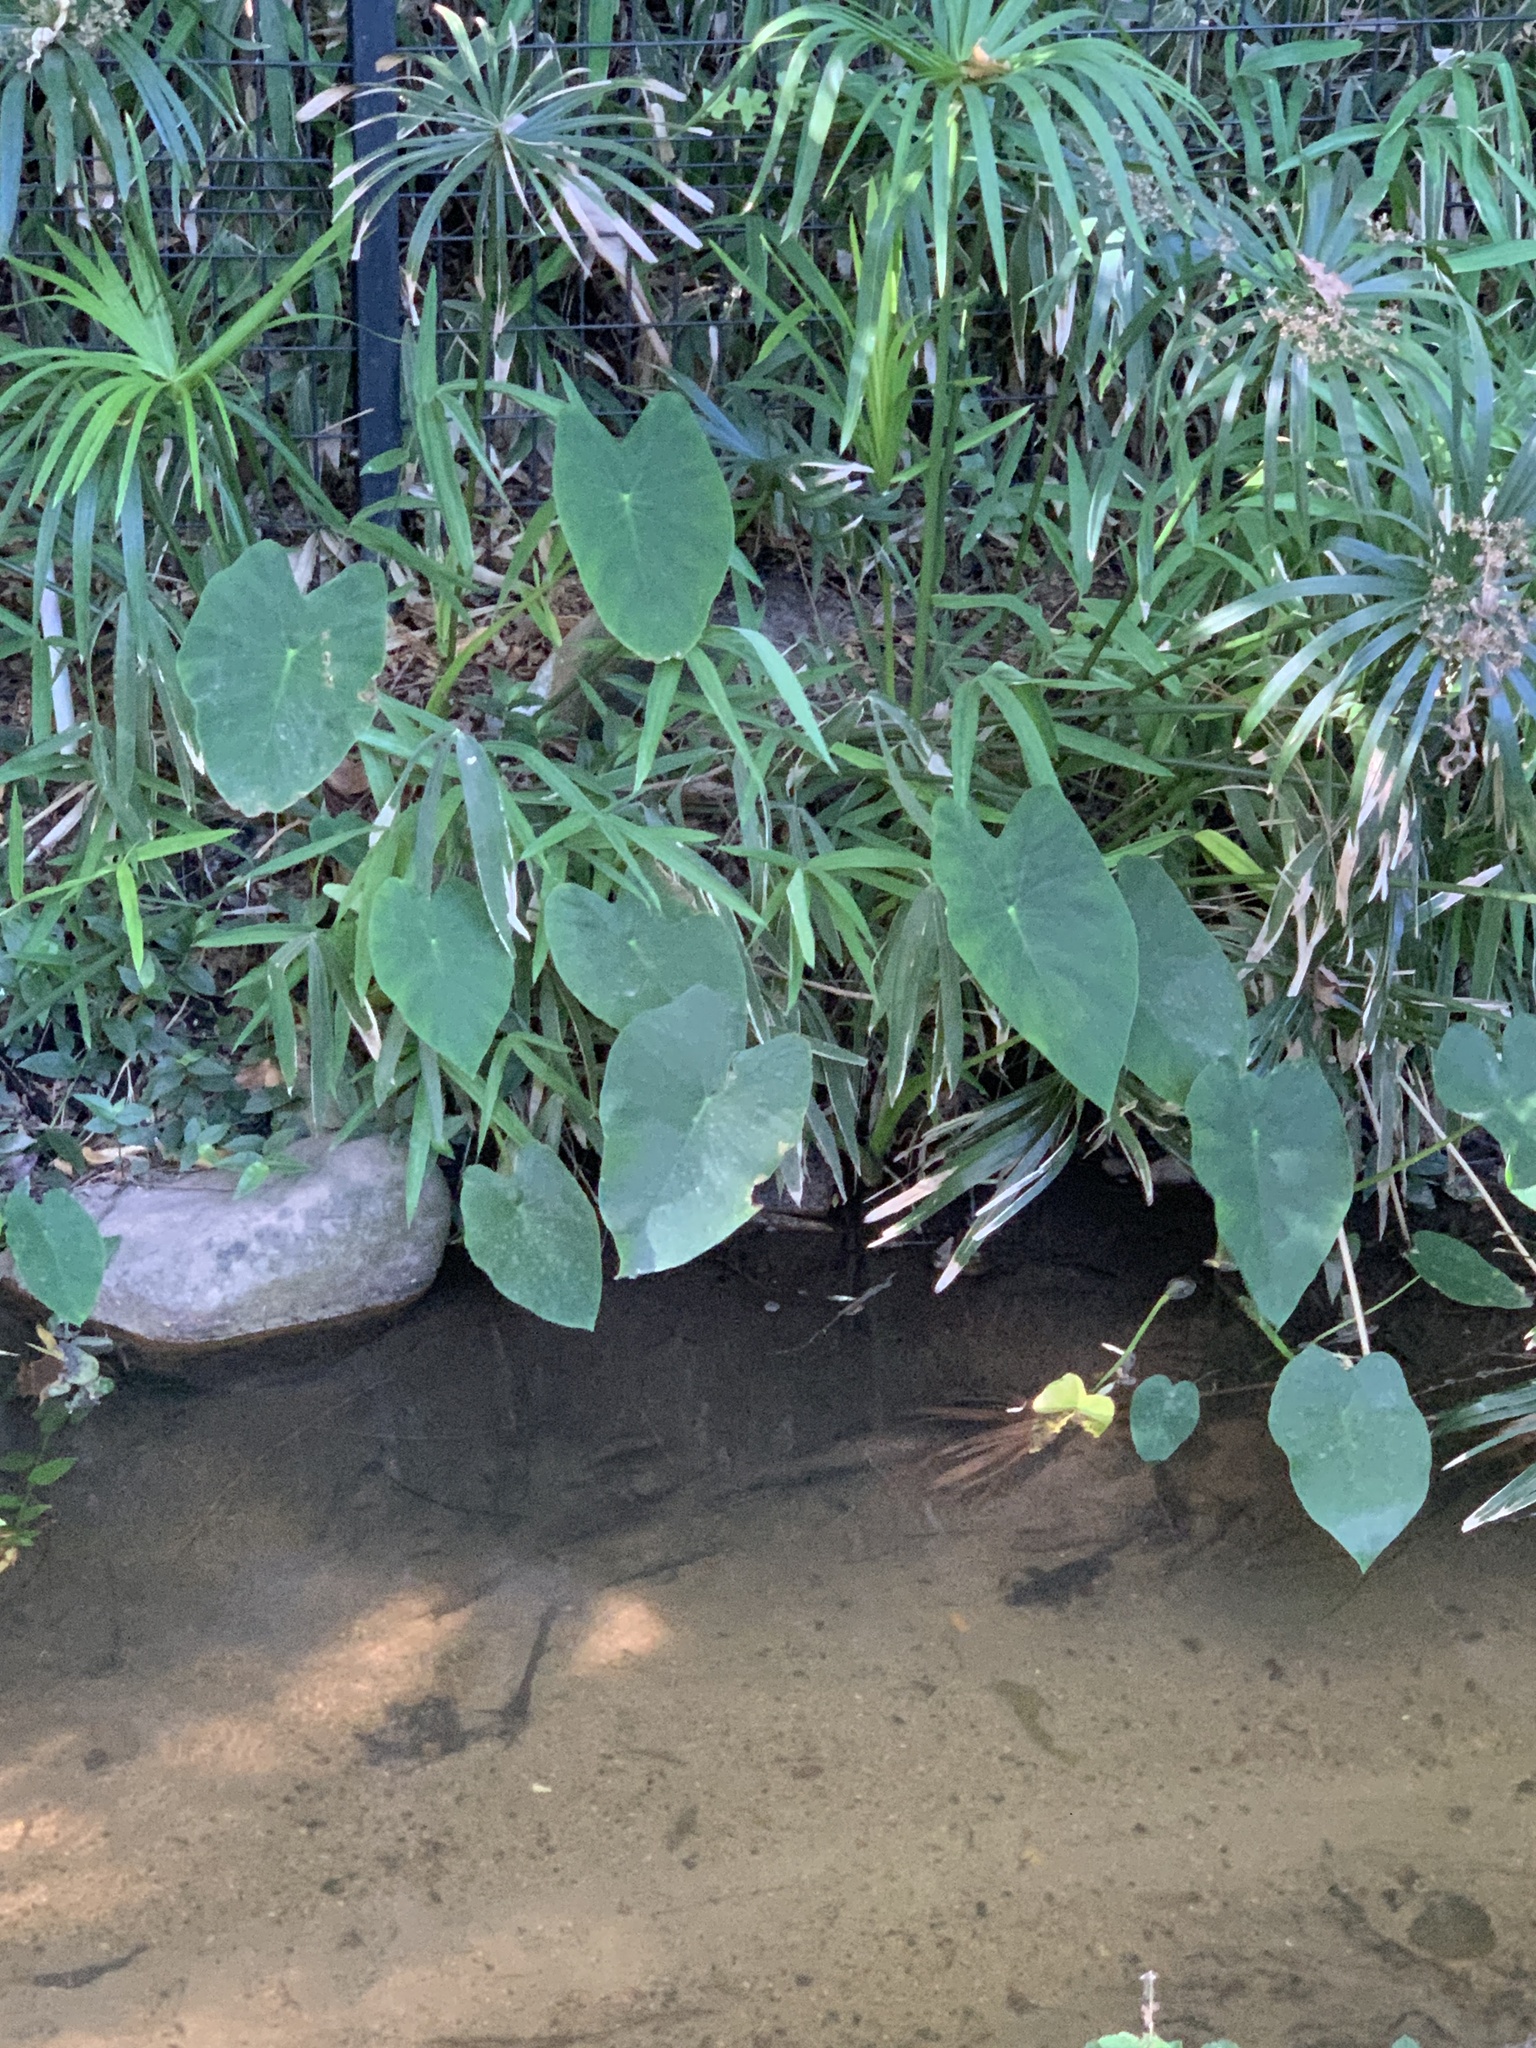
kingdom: Plantae
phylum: Tracheophyta
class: Liliopsida
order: Alismatales
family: Araceae
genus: Colocasia
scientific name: Colocasia esculenta
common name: Taro
